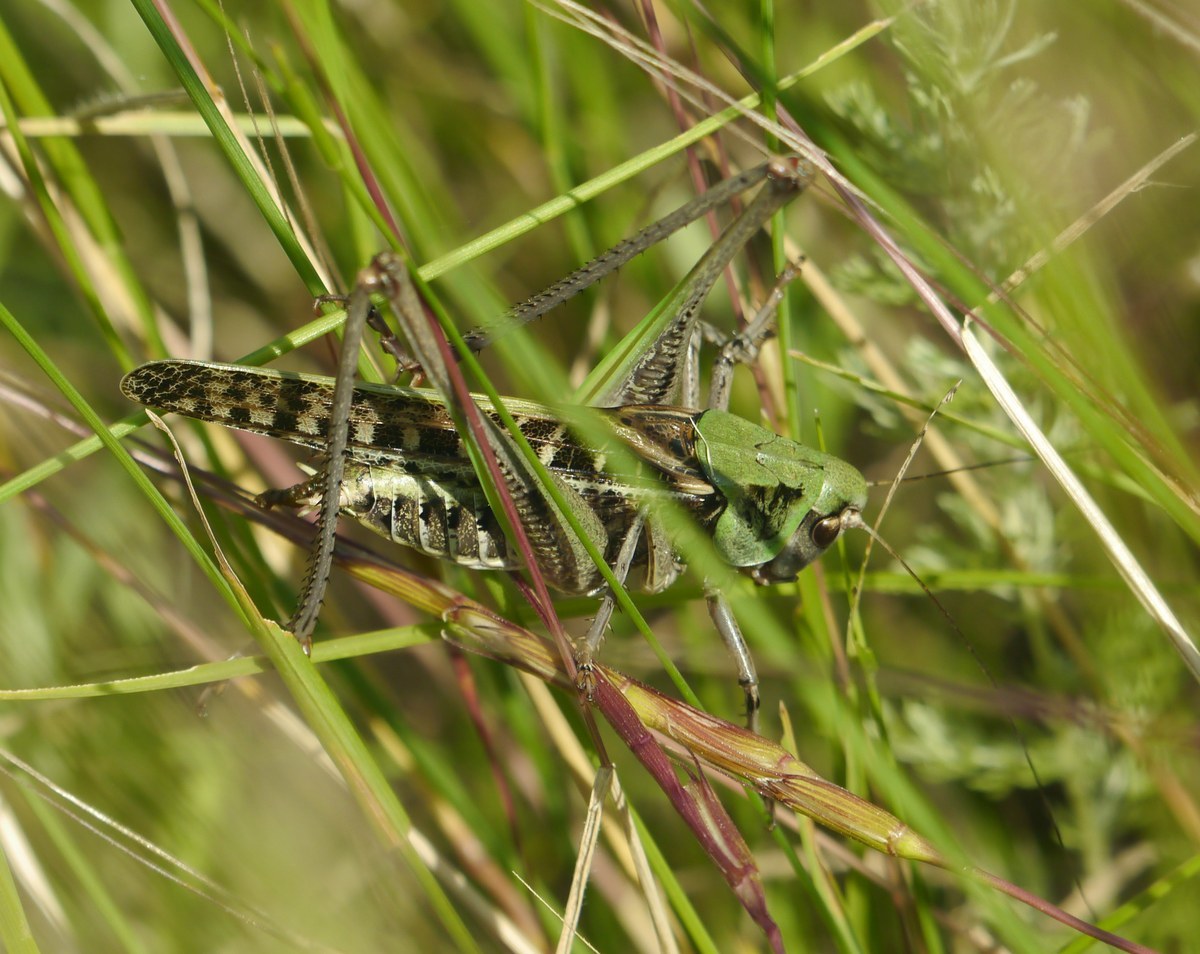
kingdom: Animalia
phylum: Arthropoda
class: Insecta
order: Orthoptera
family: Tettigoniidae
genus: Decticus
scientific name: Decticus verrucivorus
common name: Wart-biter
